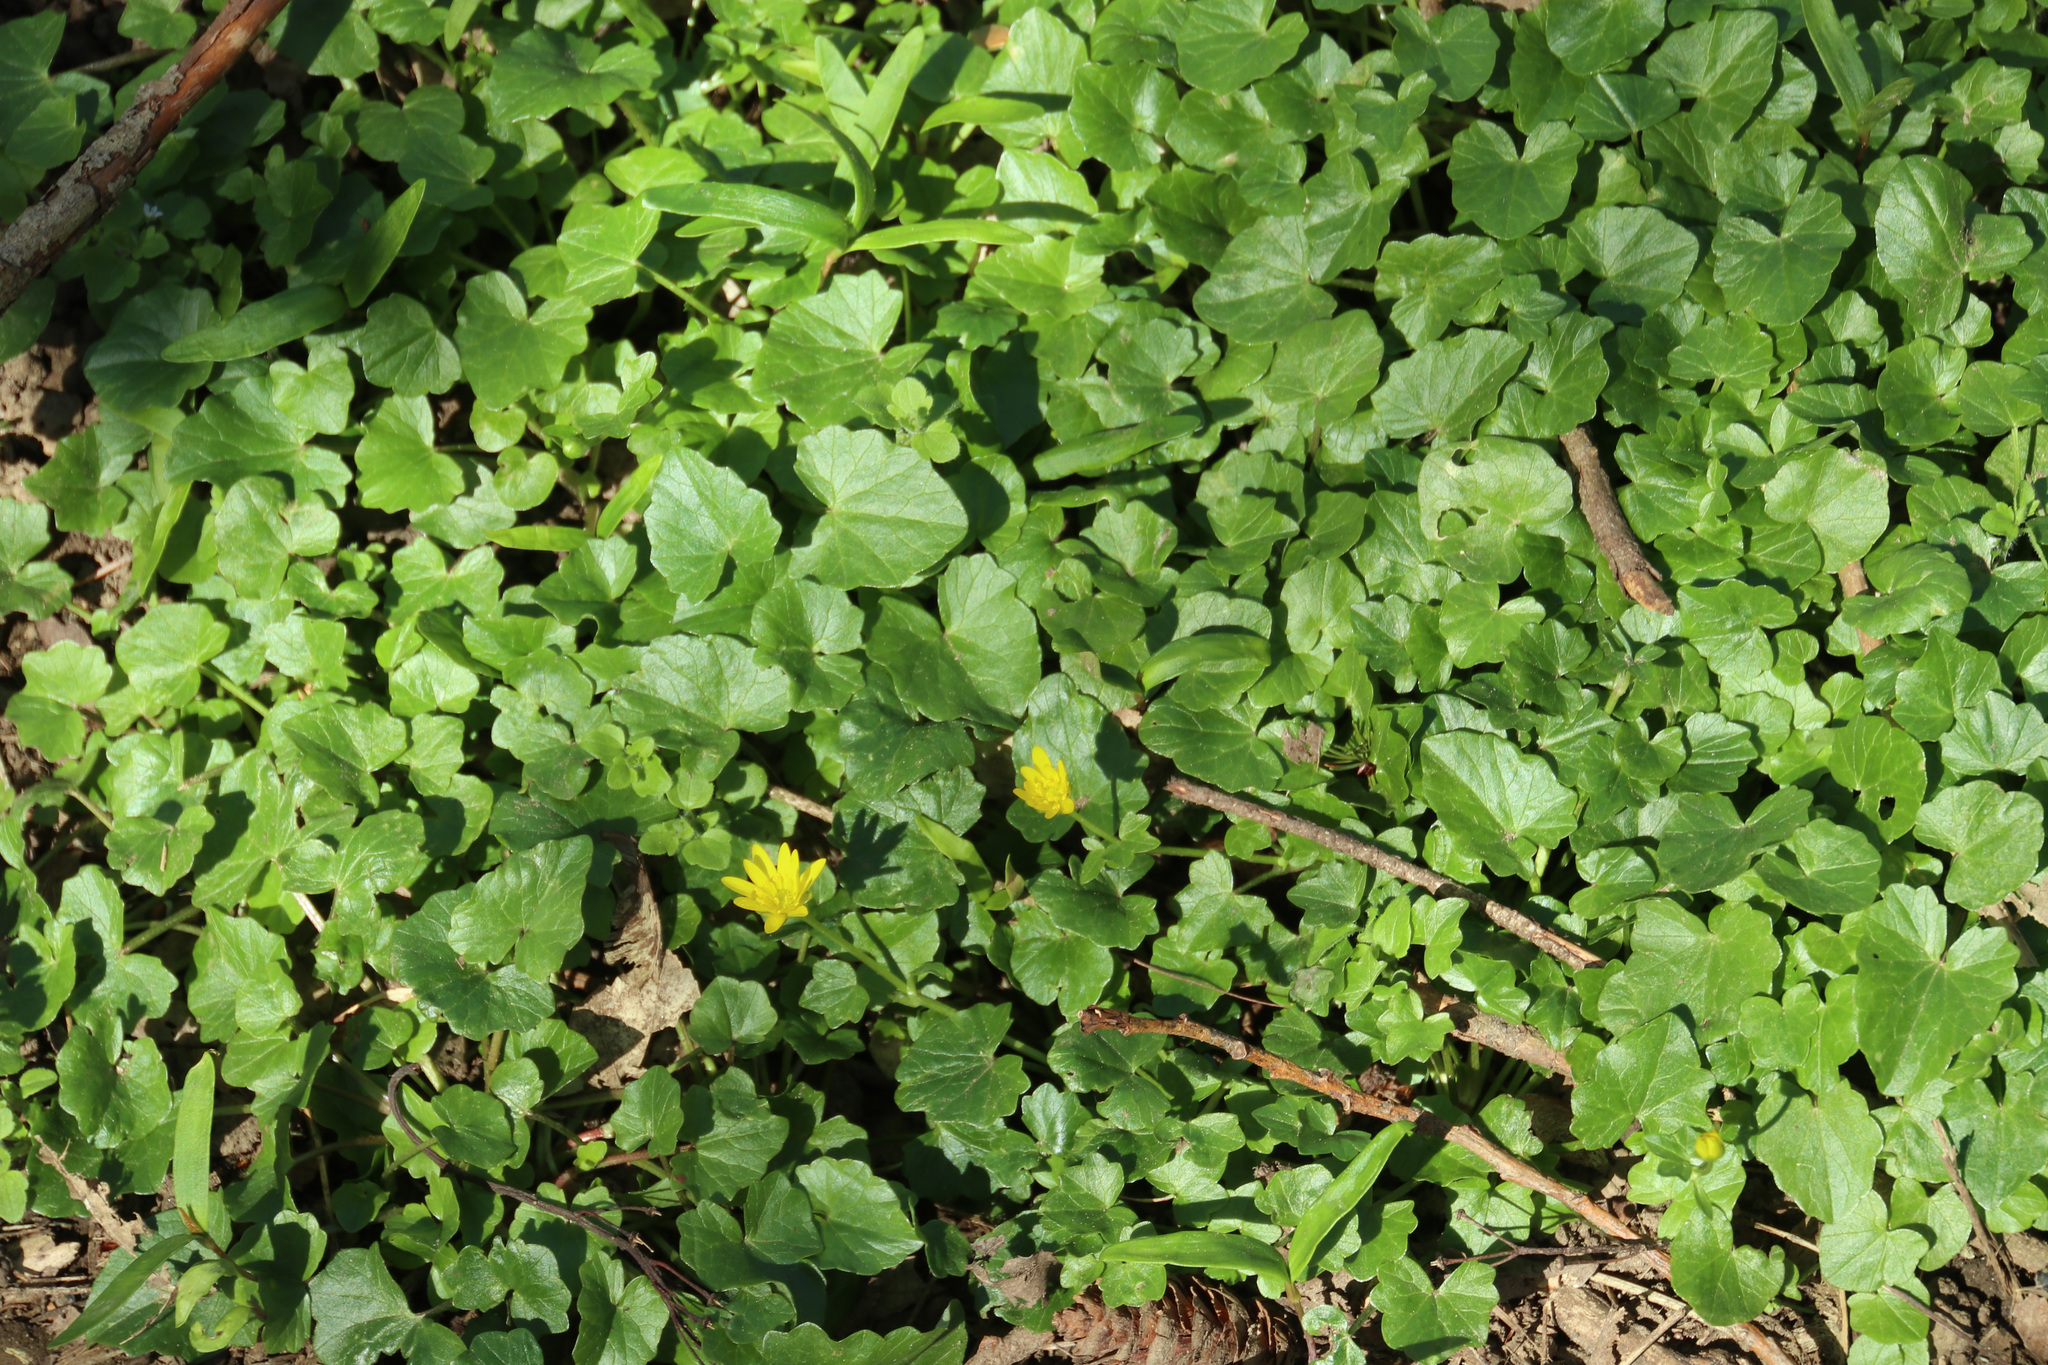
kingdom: Plantae
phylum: Tracheophyta
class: Magnoliopsida
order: Ranunculales
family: Ranunculaceae
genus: Ficaria
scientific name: Ficaria verna
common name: Lesser celandine
